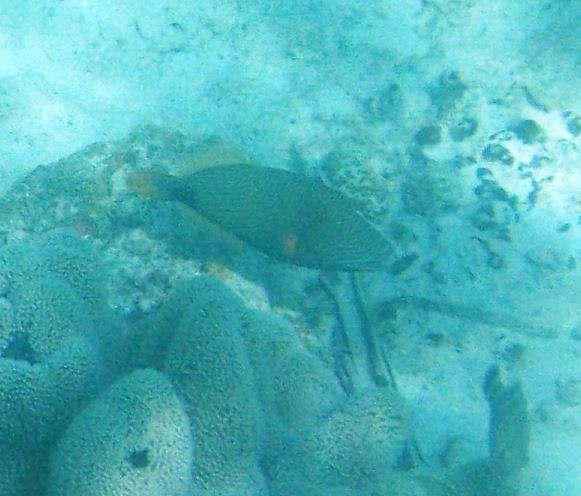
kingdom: Animalia
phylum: Chordata
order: Tetraodontiformes
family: Balistidae
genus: Balistapus
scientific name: Balistapus undulatus
